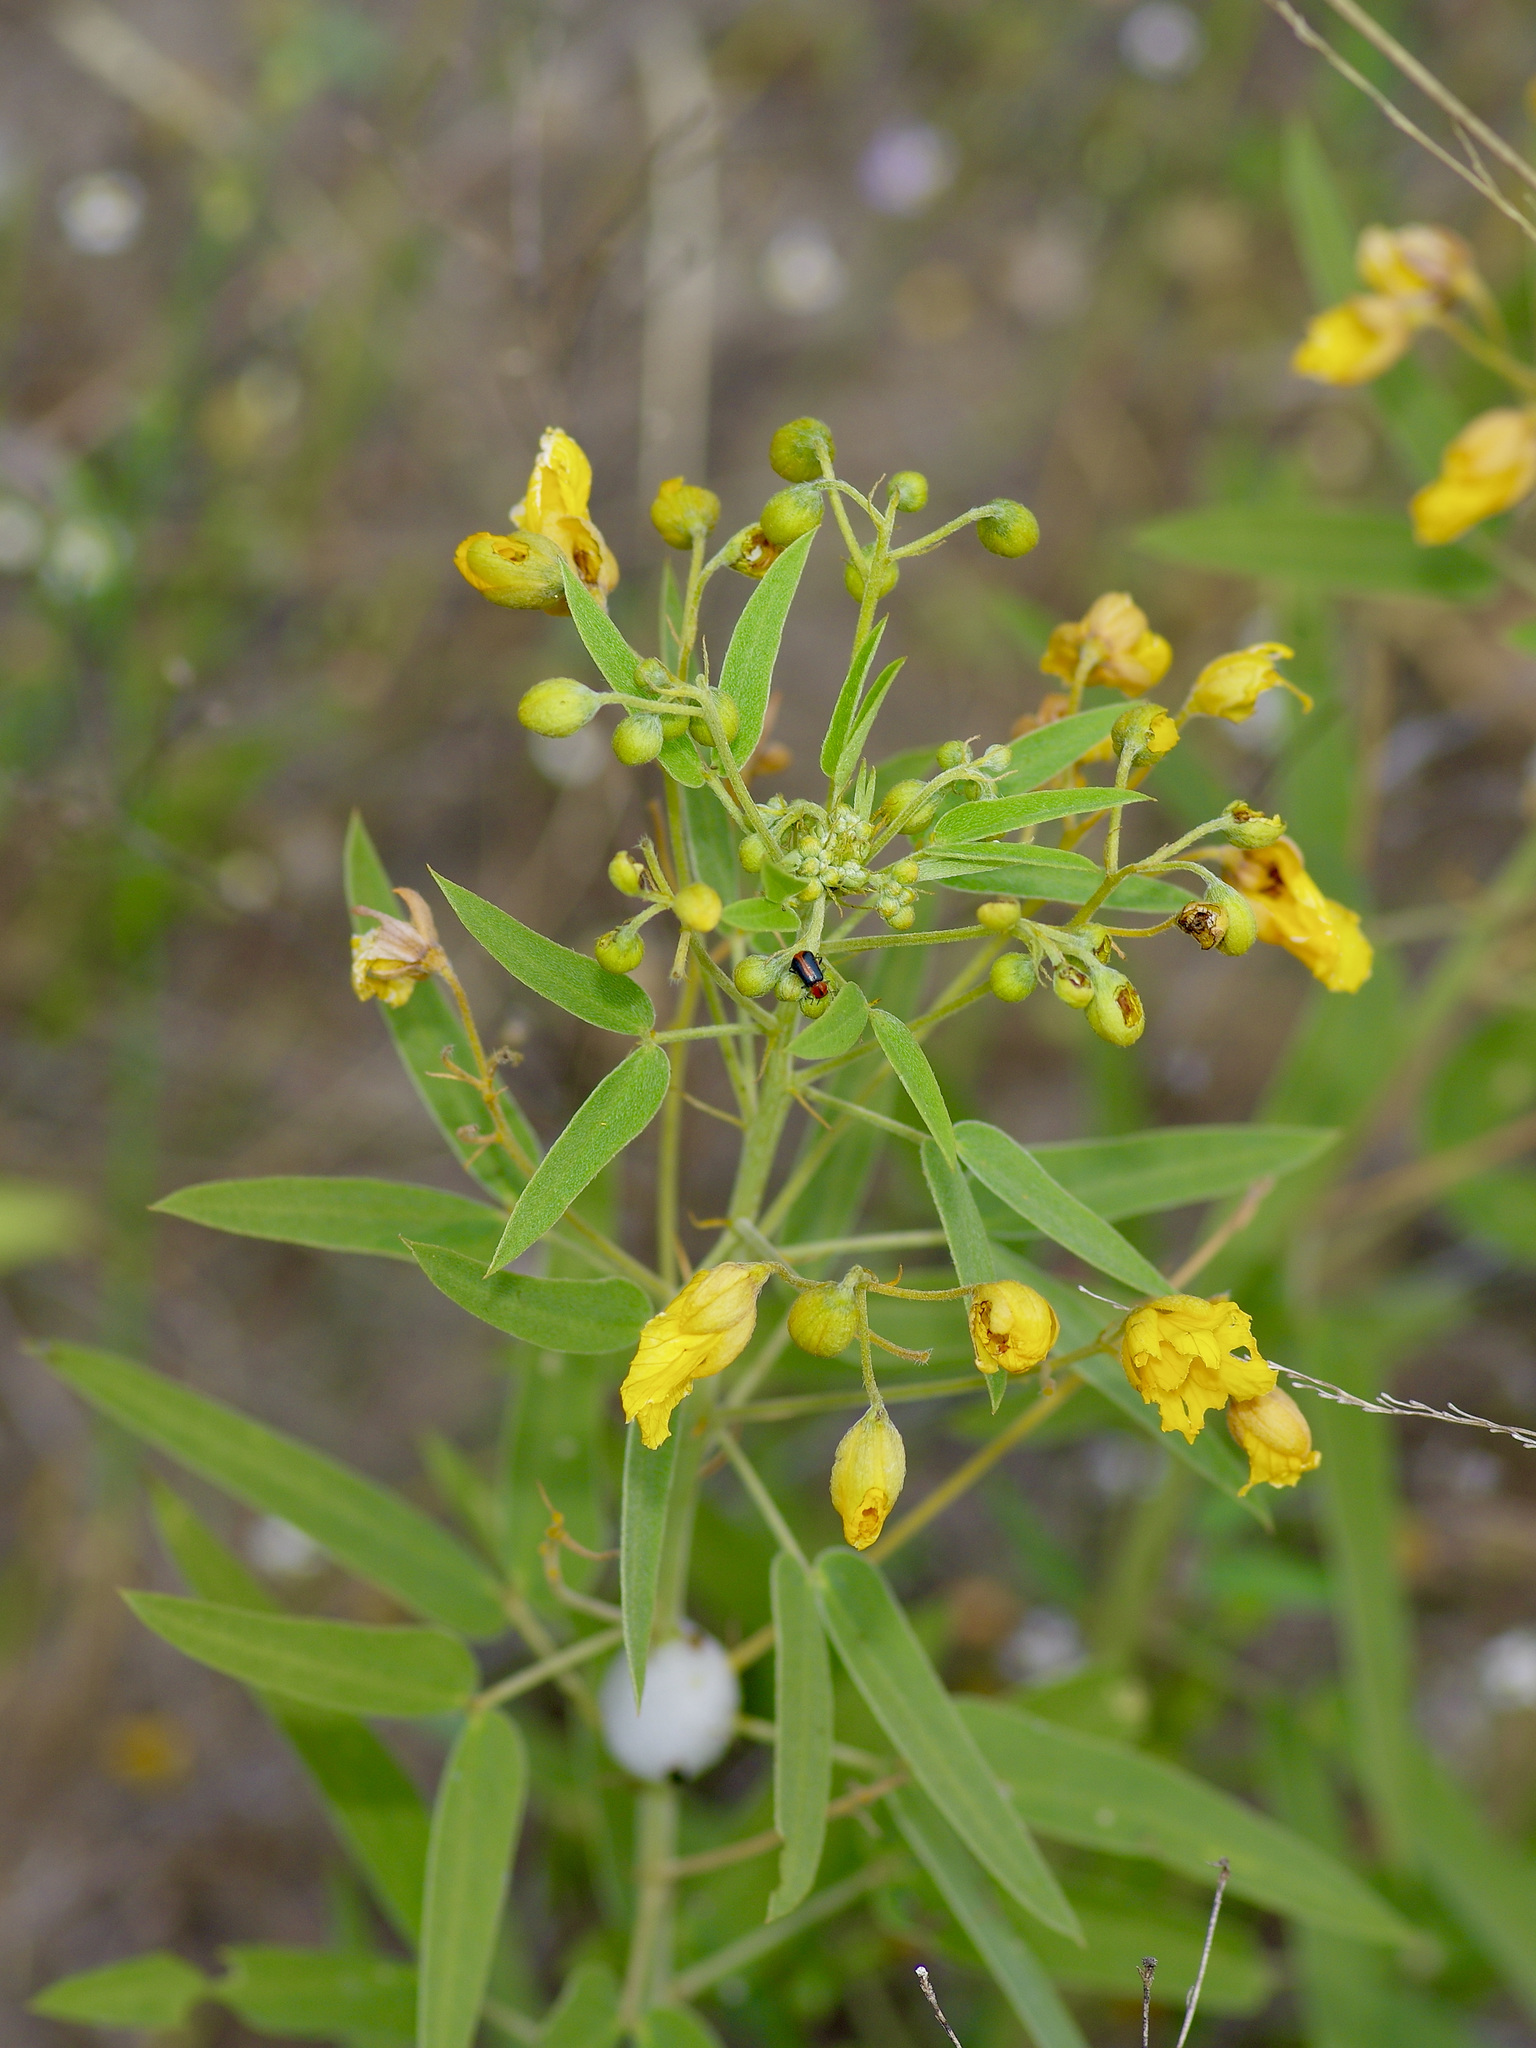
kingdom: Plantae
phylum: Tracheophyta
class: Magnoliopsida
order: Fabales
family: Fabaceae
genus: Senna
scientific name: Senna roemeriana
